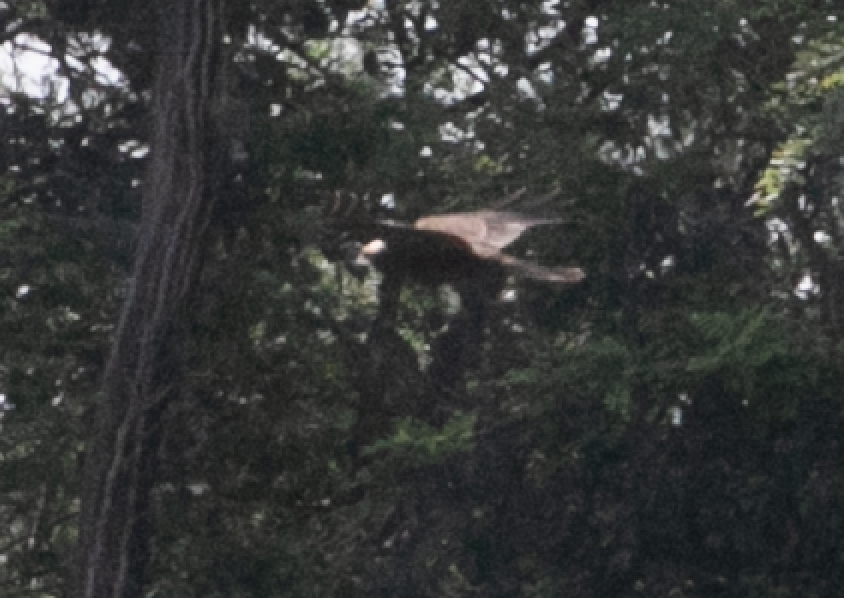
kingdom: Animalia
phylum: Chordata
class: Aves
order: Accipitriformes
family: Accipitridae
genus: Circus
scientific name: Circus aeruginosus
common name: Western marsh harrier
